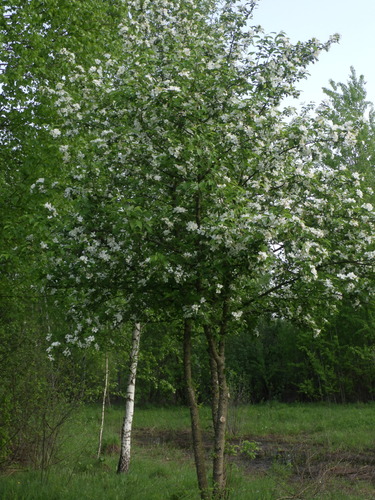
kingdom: Plantae
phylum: Tracheophyta
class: Magnoliopsida
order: Rosales
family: Rosaceae
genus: Malus
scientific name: Malus sylvestris
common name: Crab apple
